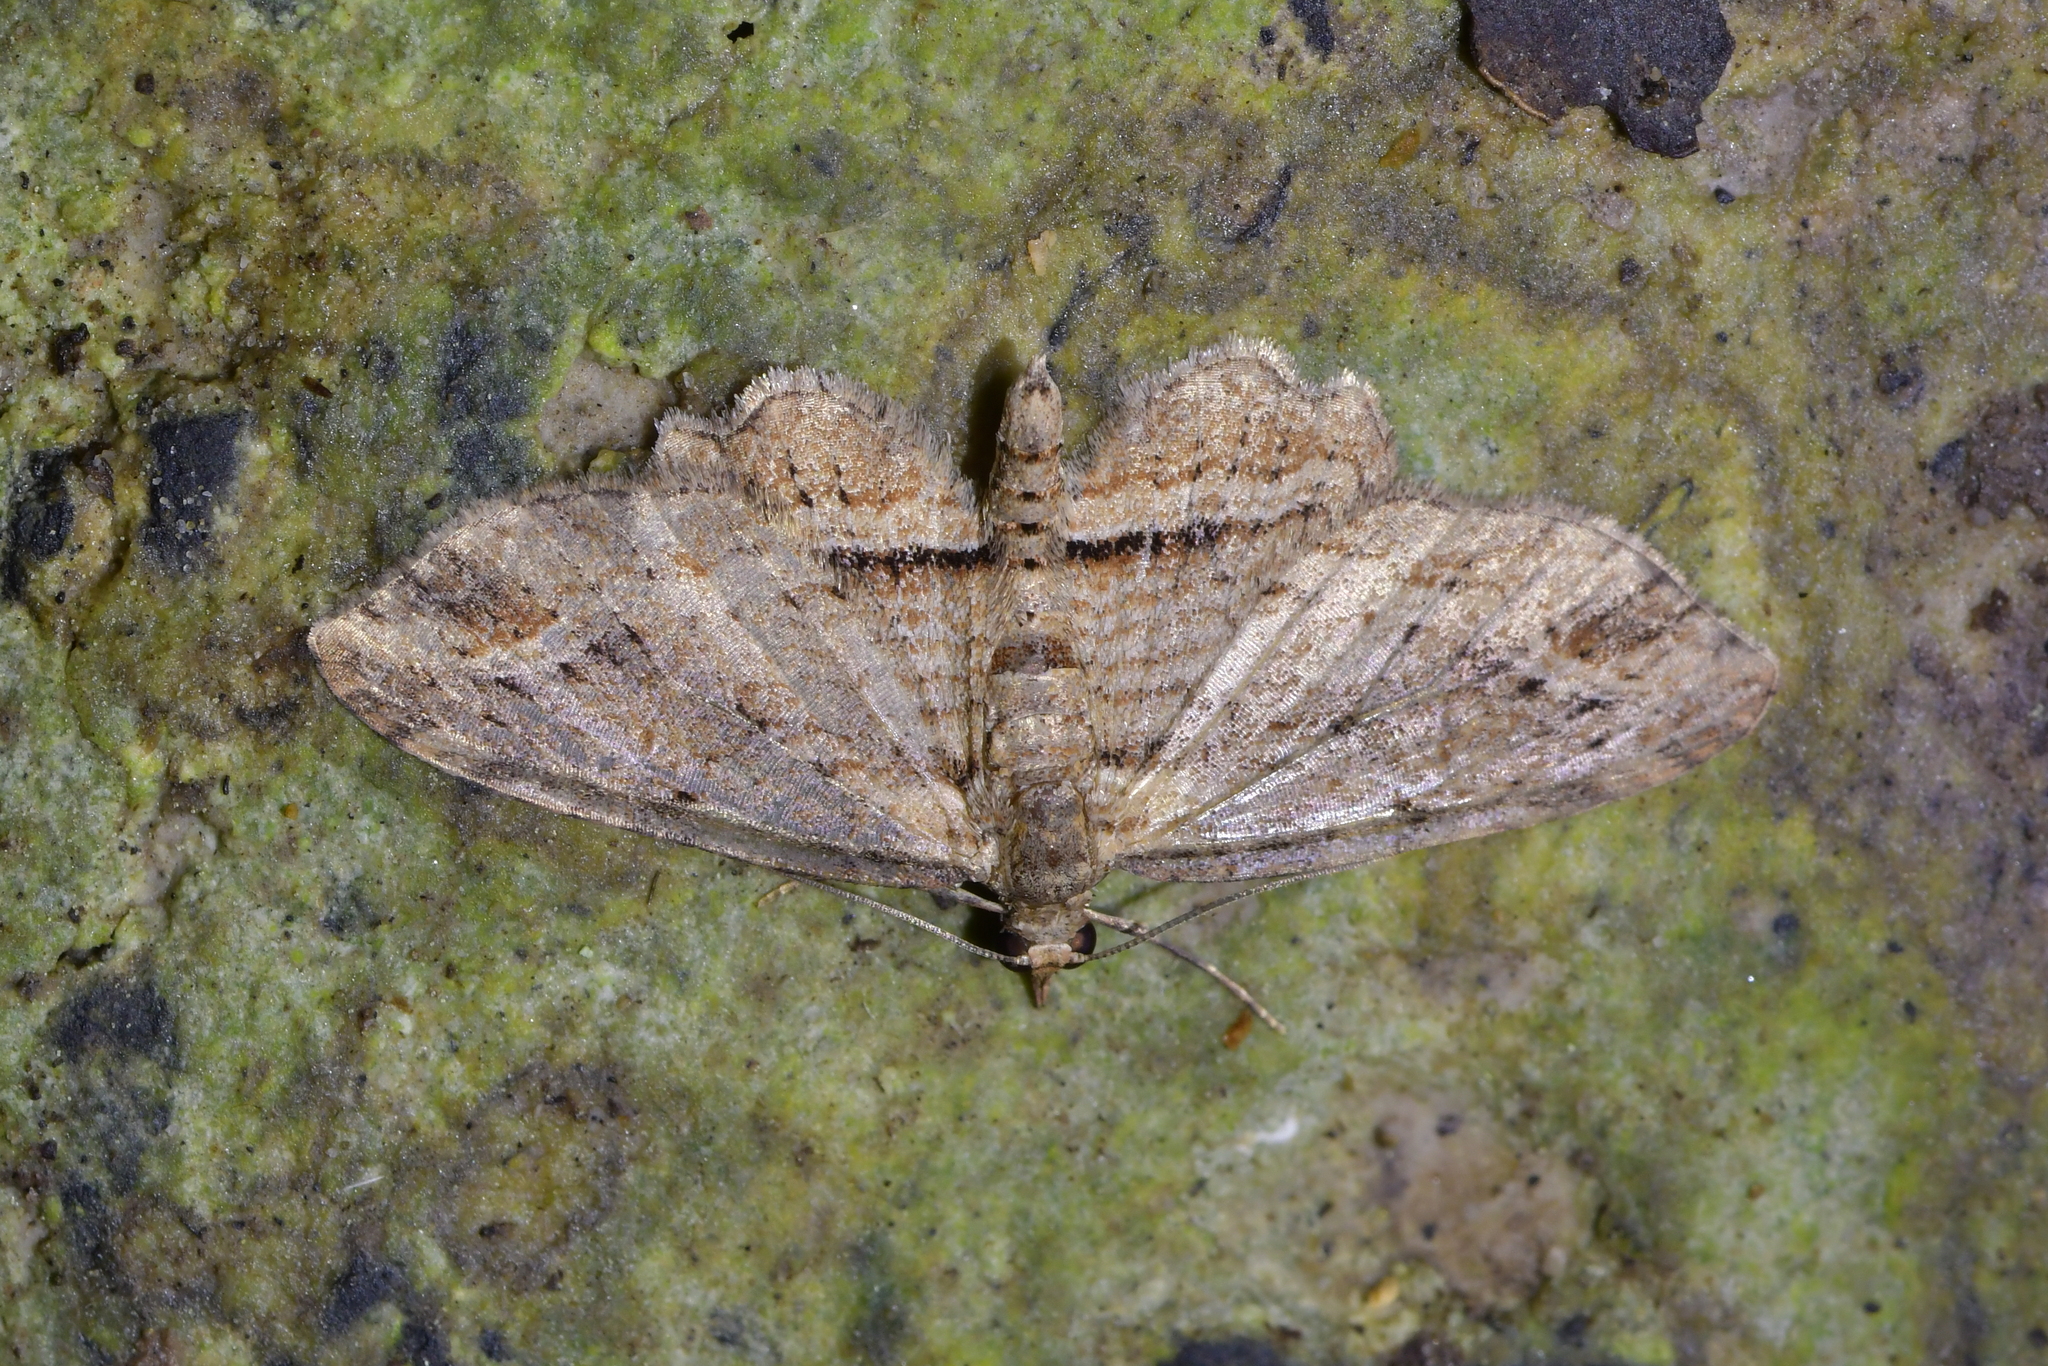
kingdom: Animalia
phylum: Arthropoda
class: Insecta
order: Lepidoptera
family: Geometridae
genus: Chloroclystis
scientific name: Chloroclystis filata
